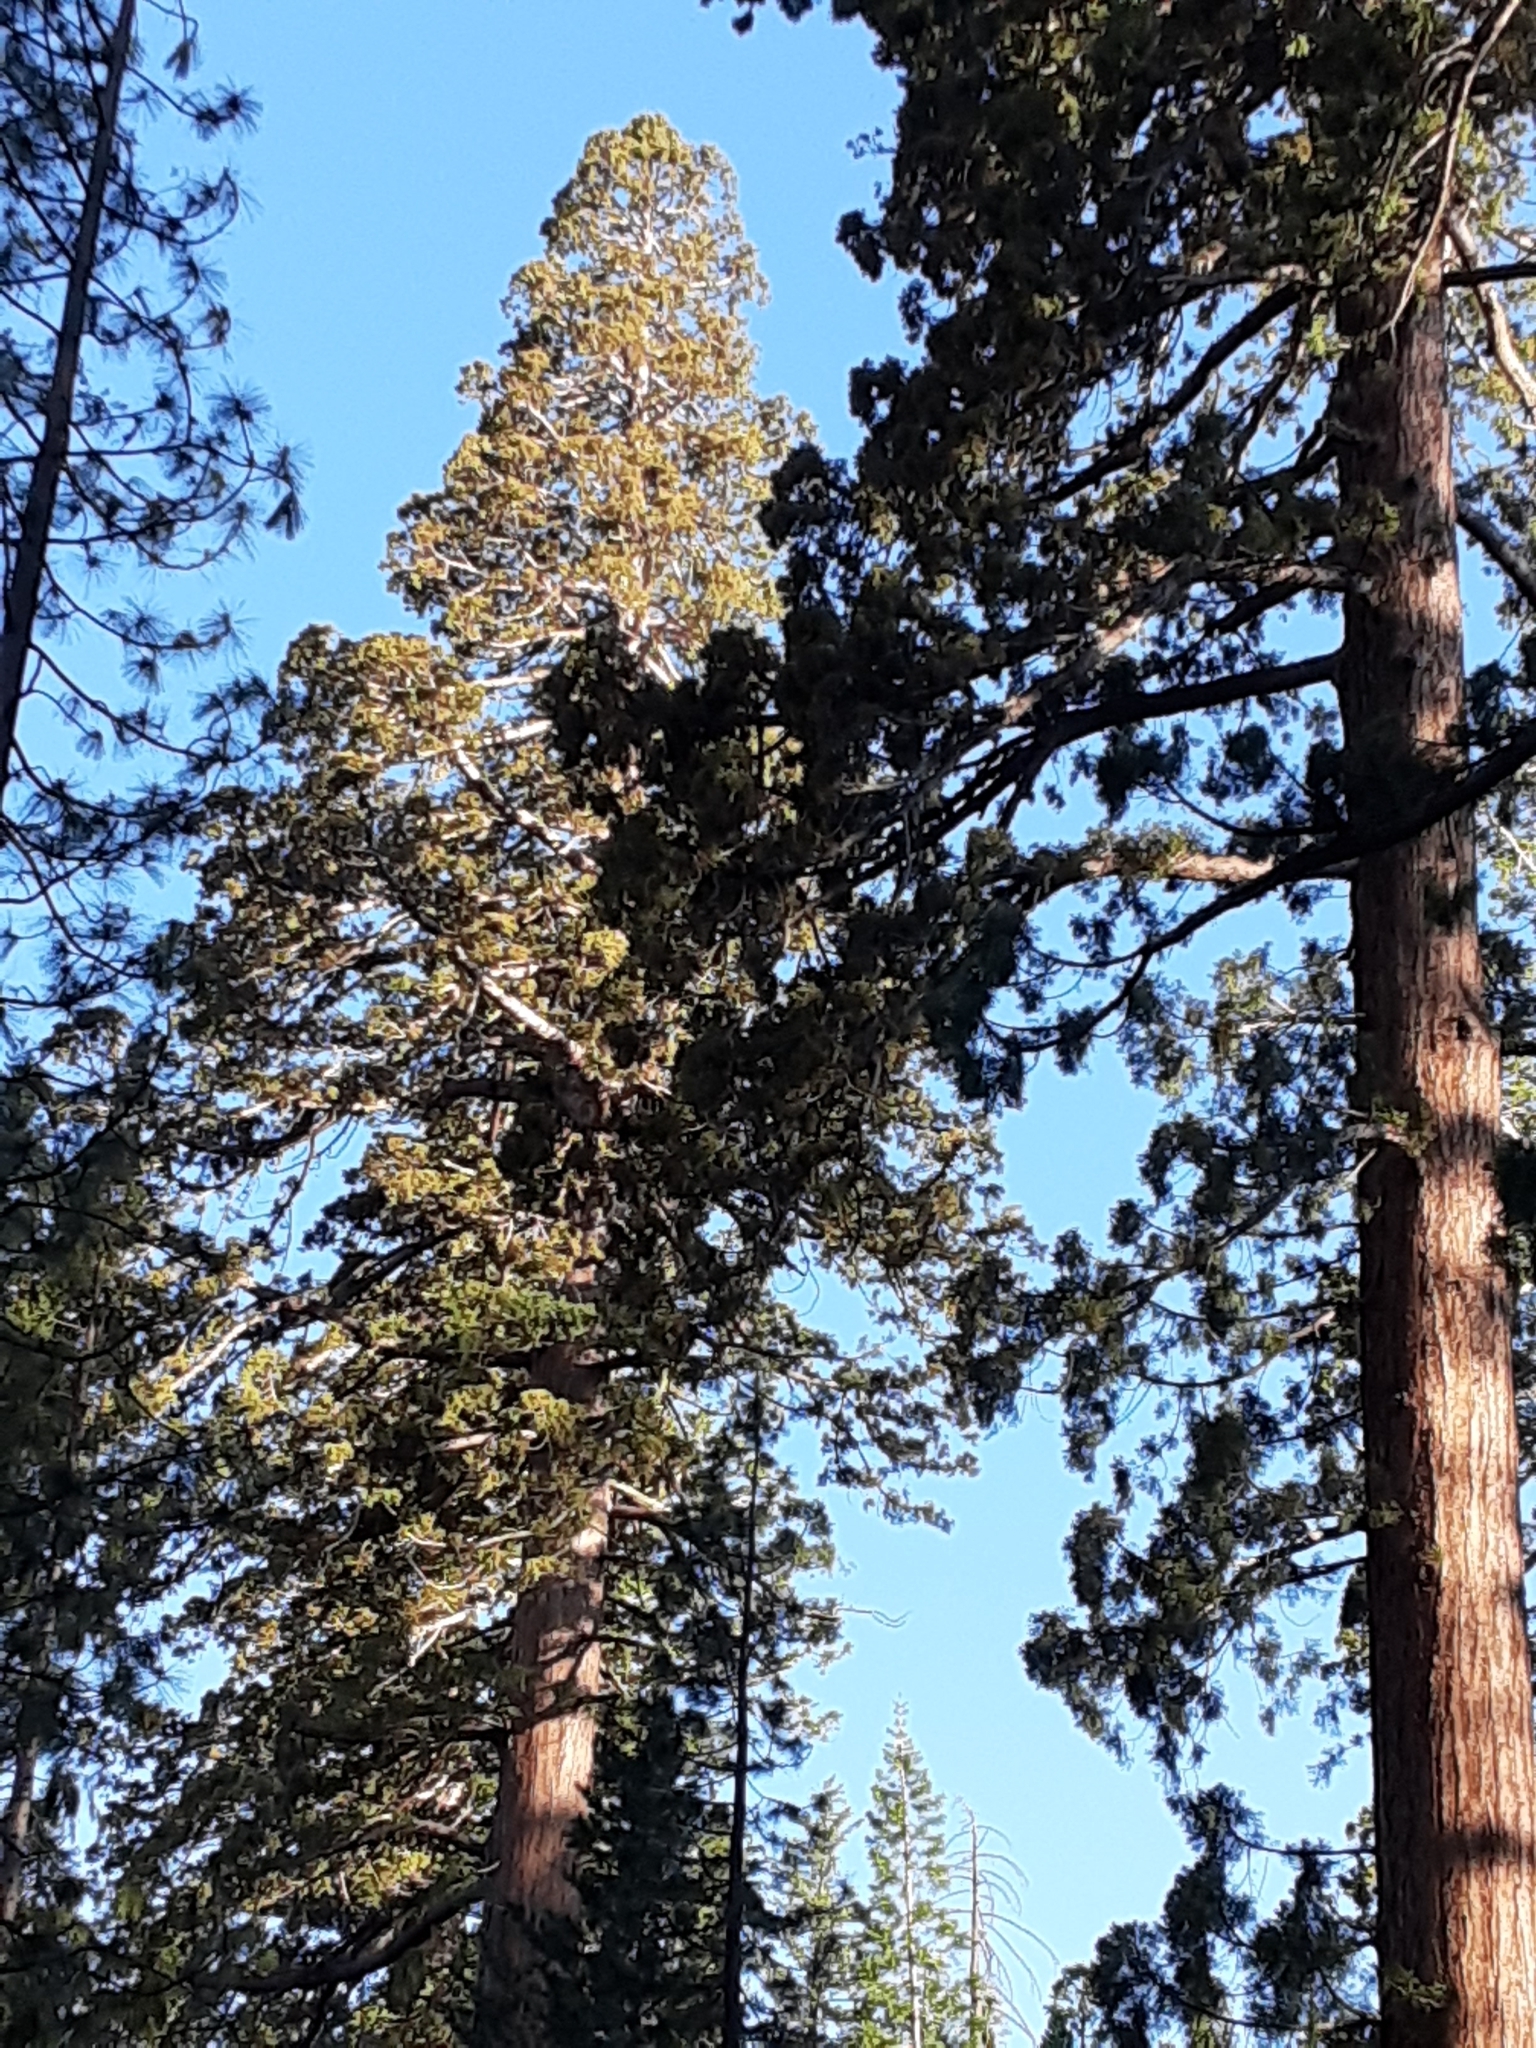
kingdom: Plantae
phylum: Tracheophyta
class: Pinopsida
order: Pinales
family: Cupressaceae
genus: Sequoiadendron
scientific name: Sequoiadendron giganteum
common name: Wellingtonia
